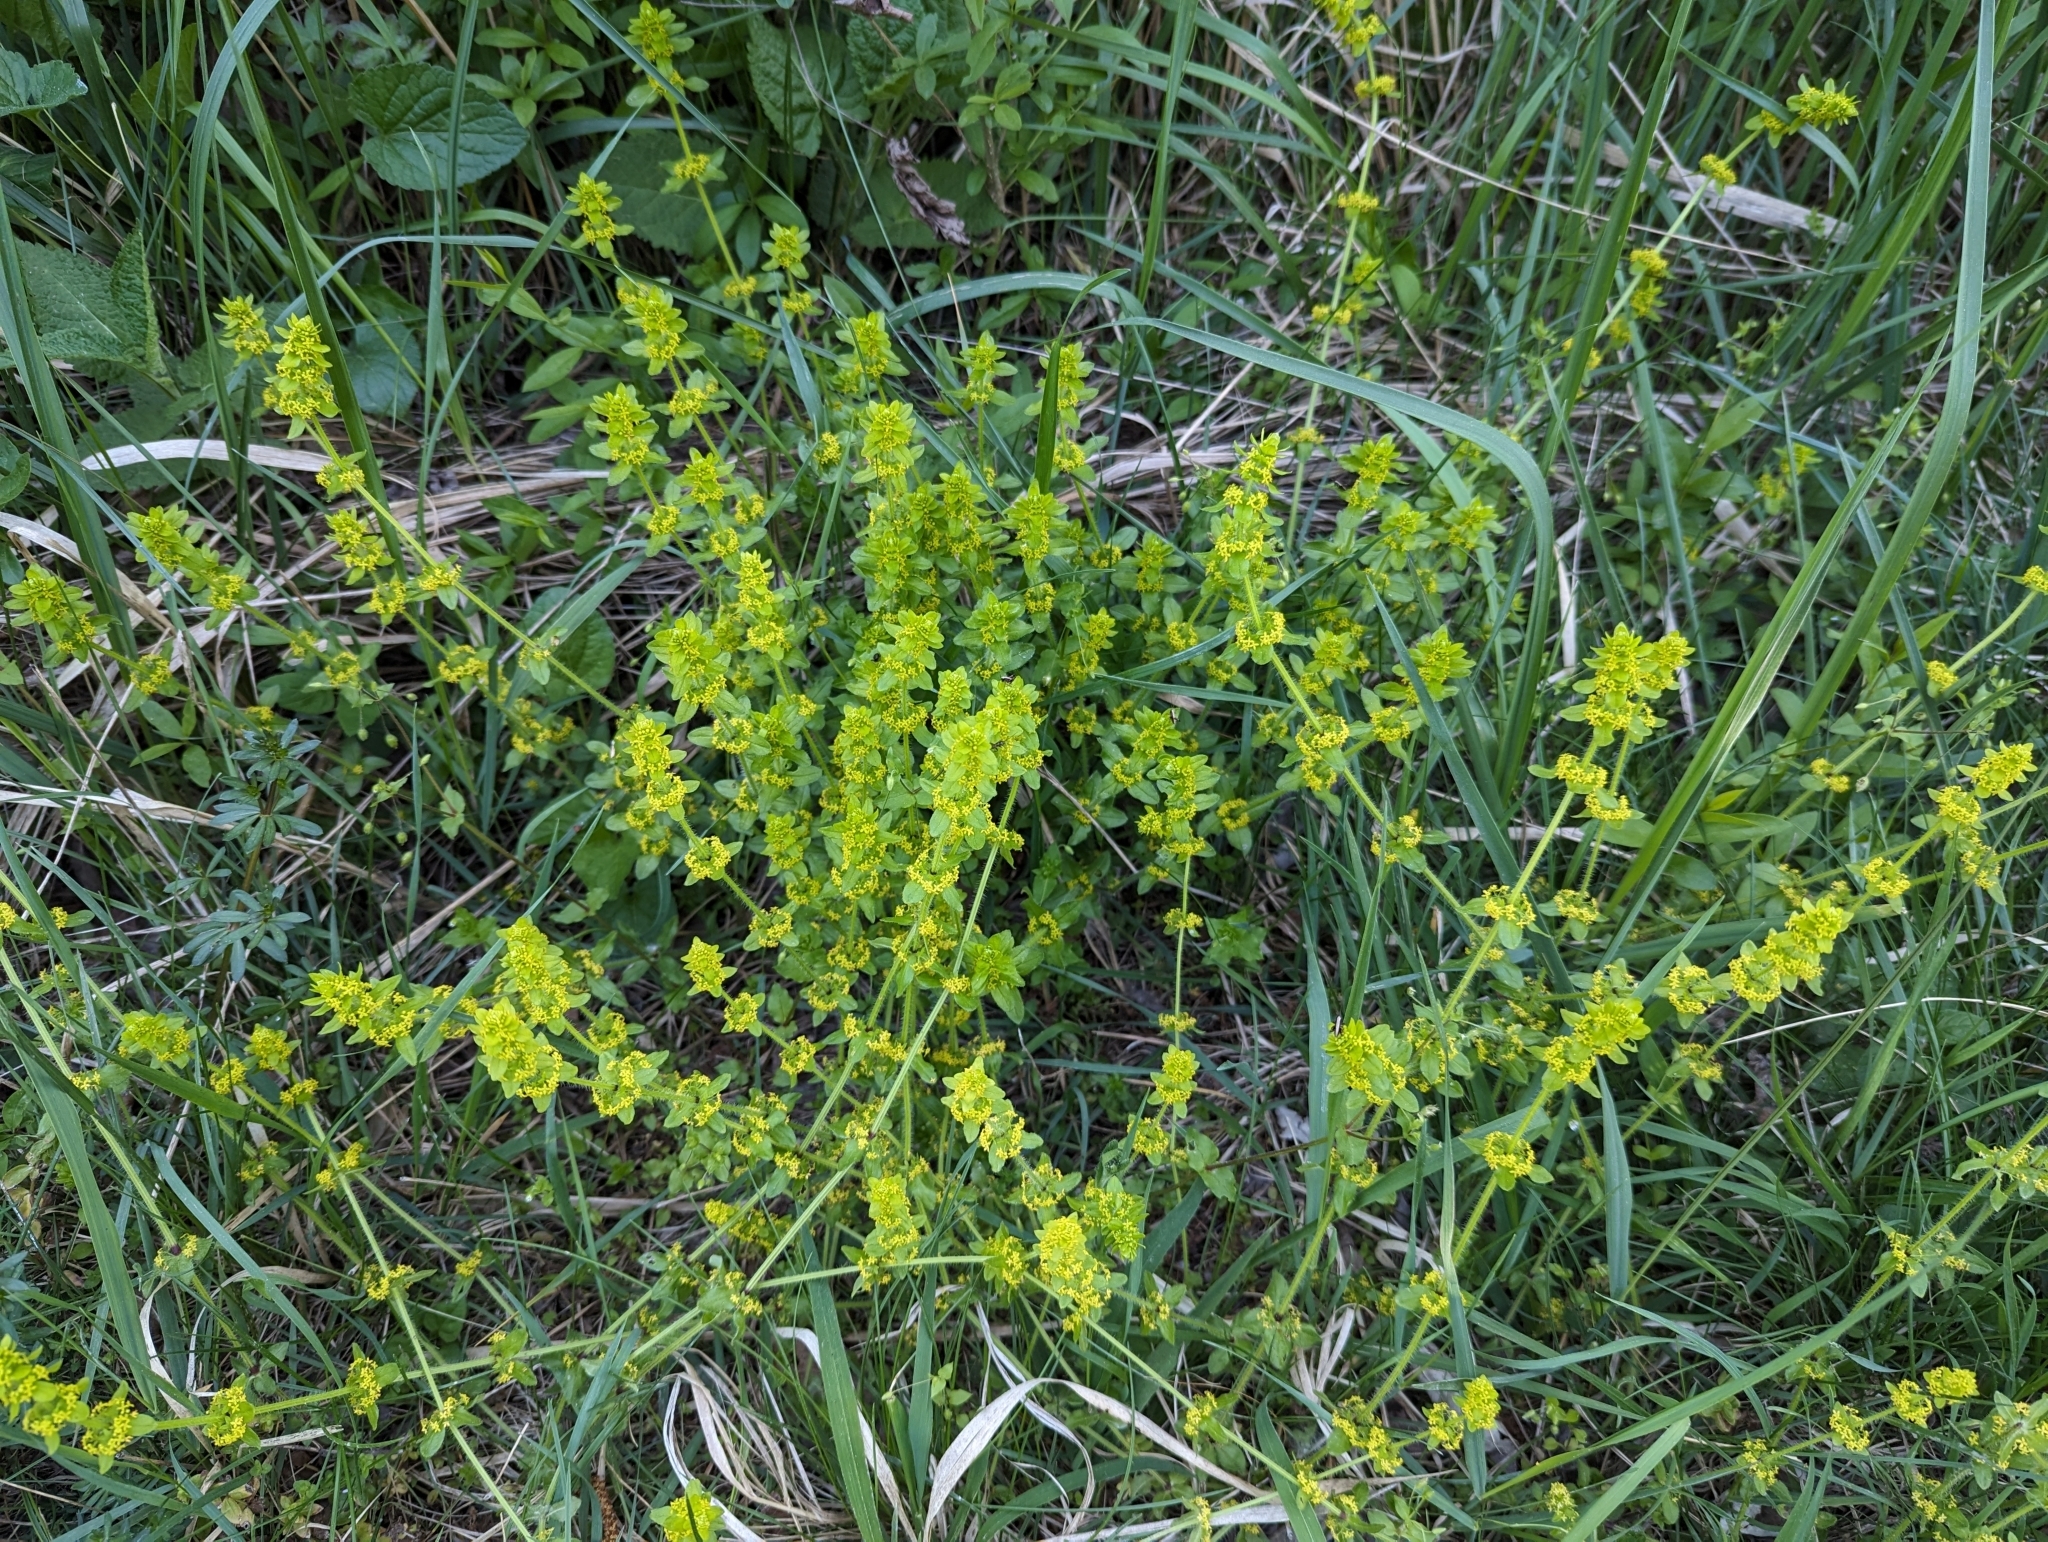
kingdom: Plantae
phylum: Tracheophyta
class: Magnoliopsida
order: Gentianales
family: Rubiaceae
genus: Cruciata
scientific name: Cruciata laevipes
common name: Crosswort
